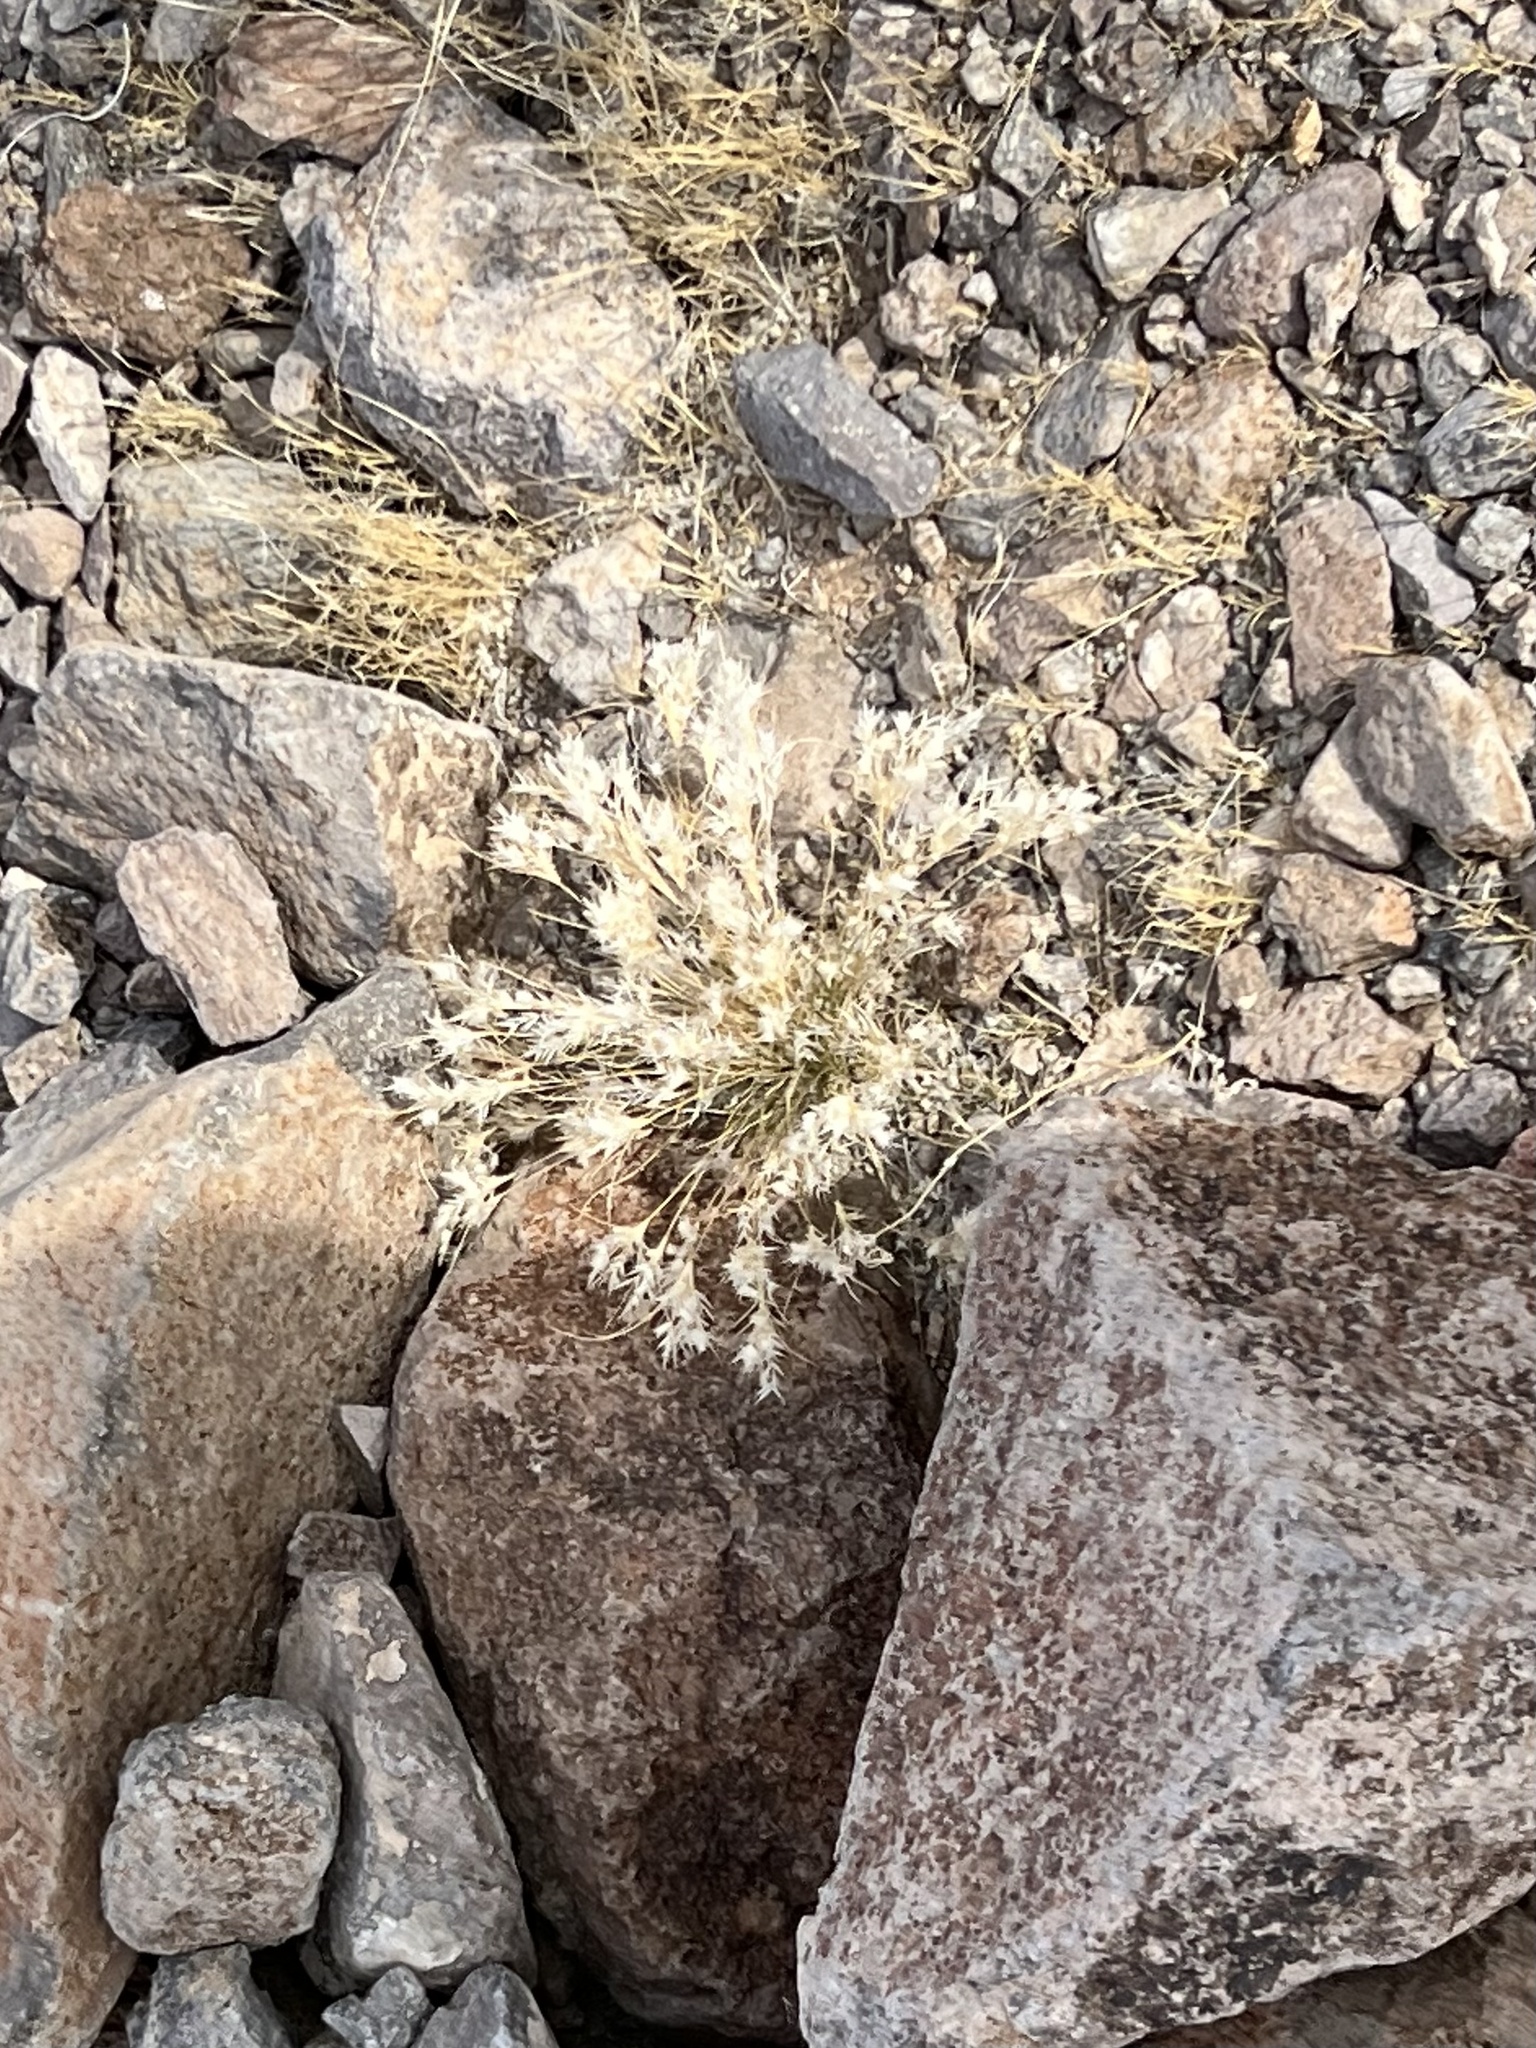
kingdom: Plantae
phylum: Tracheophyta
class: Liliopsida
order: Poales
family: Poaceae
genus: Dasyochloa
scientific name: Dasyochloa pulchella
